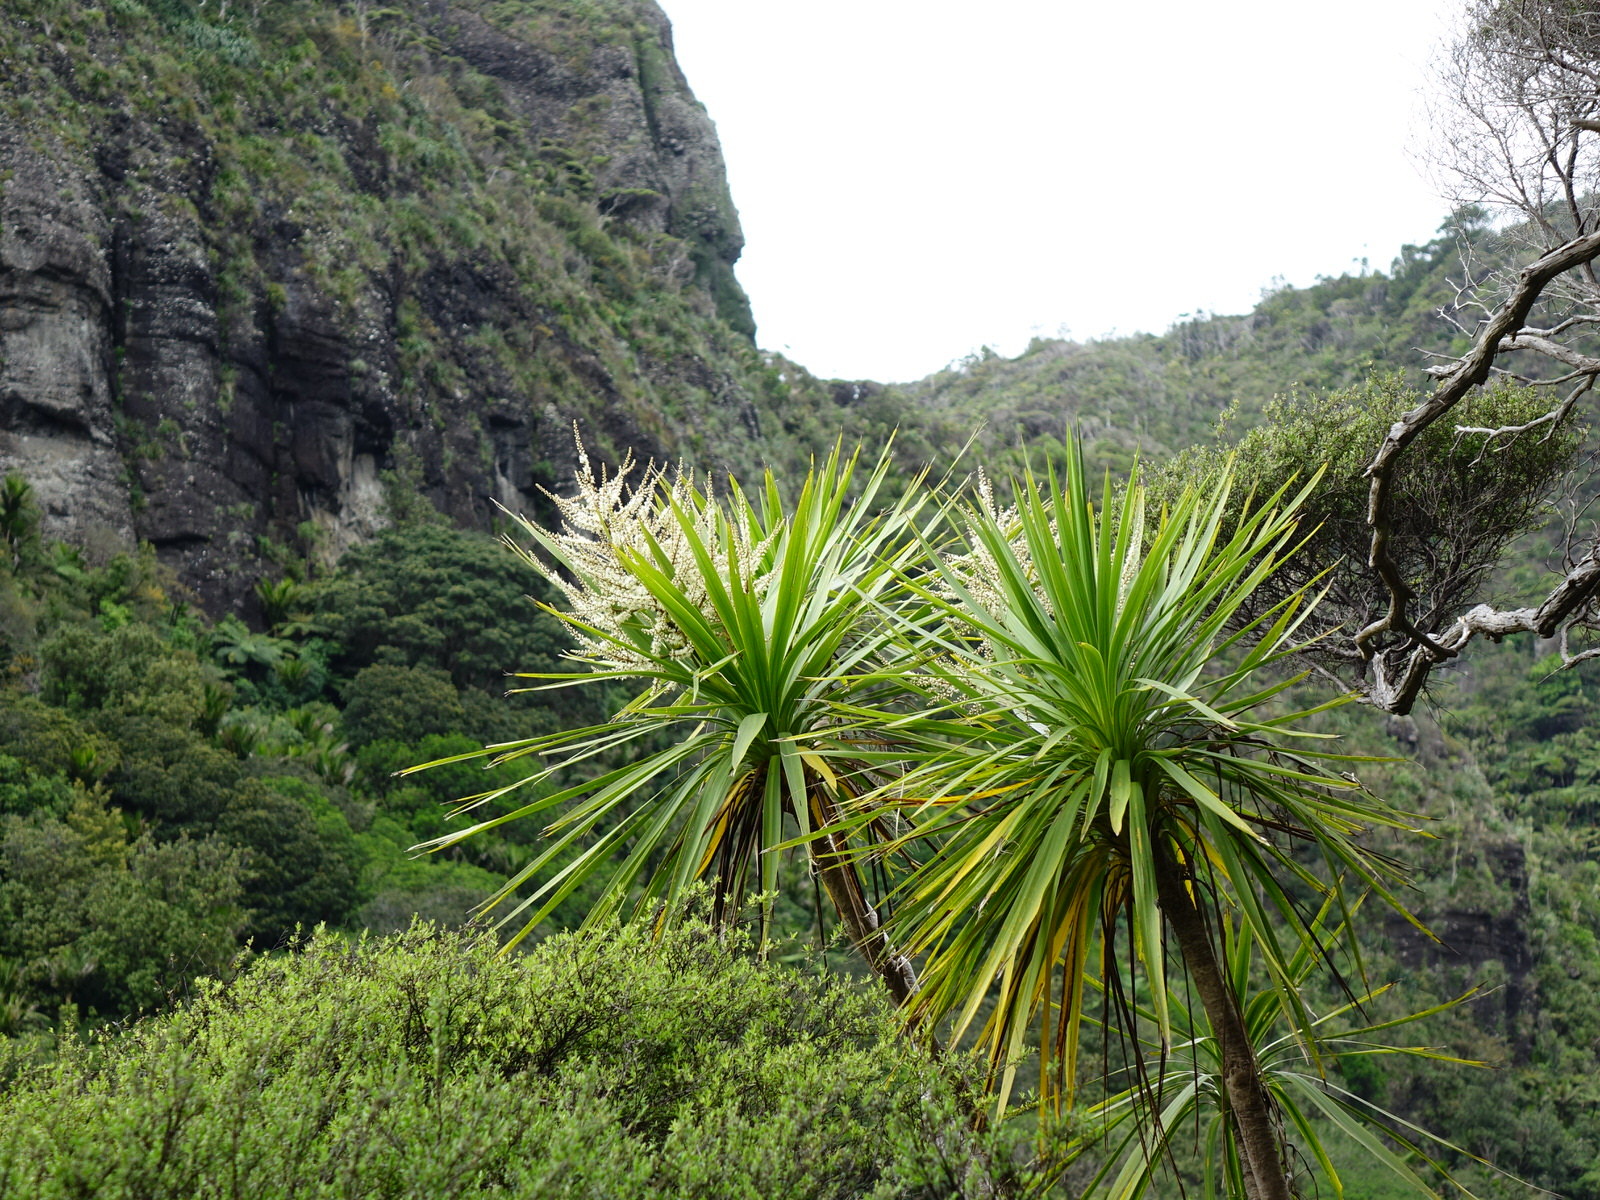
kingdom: Plantae
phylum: Tracheophyta
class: Liliopsida
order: Asparagales
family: Asparagaceae
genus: Cordyline
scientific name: Cordyline australis
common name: Cabbage-palm
